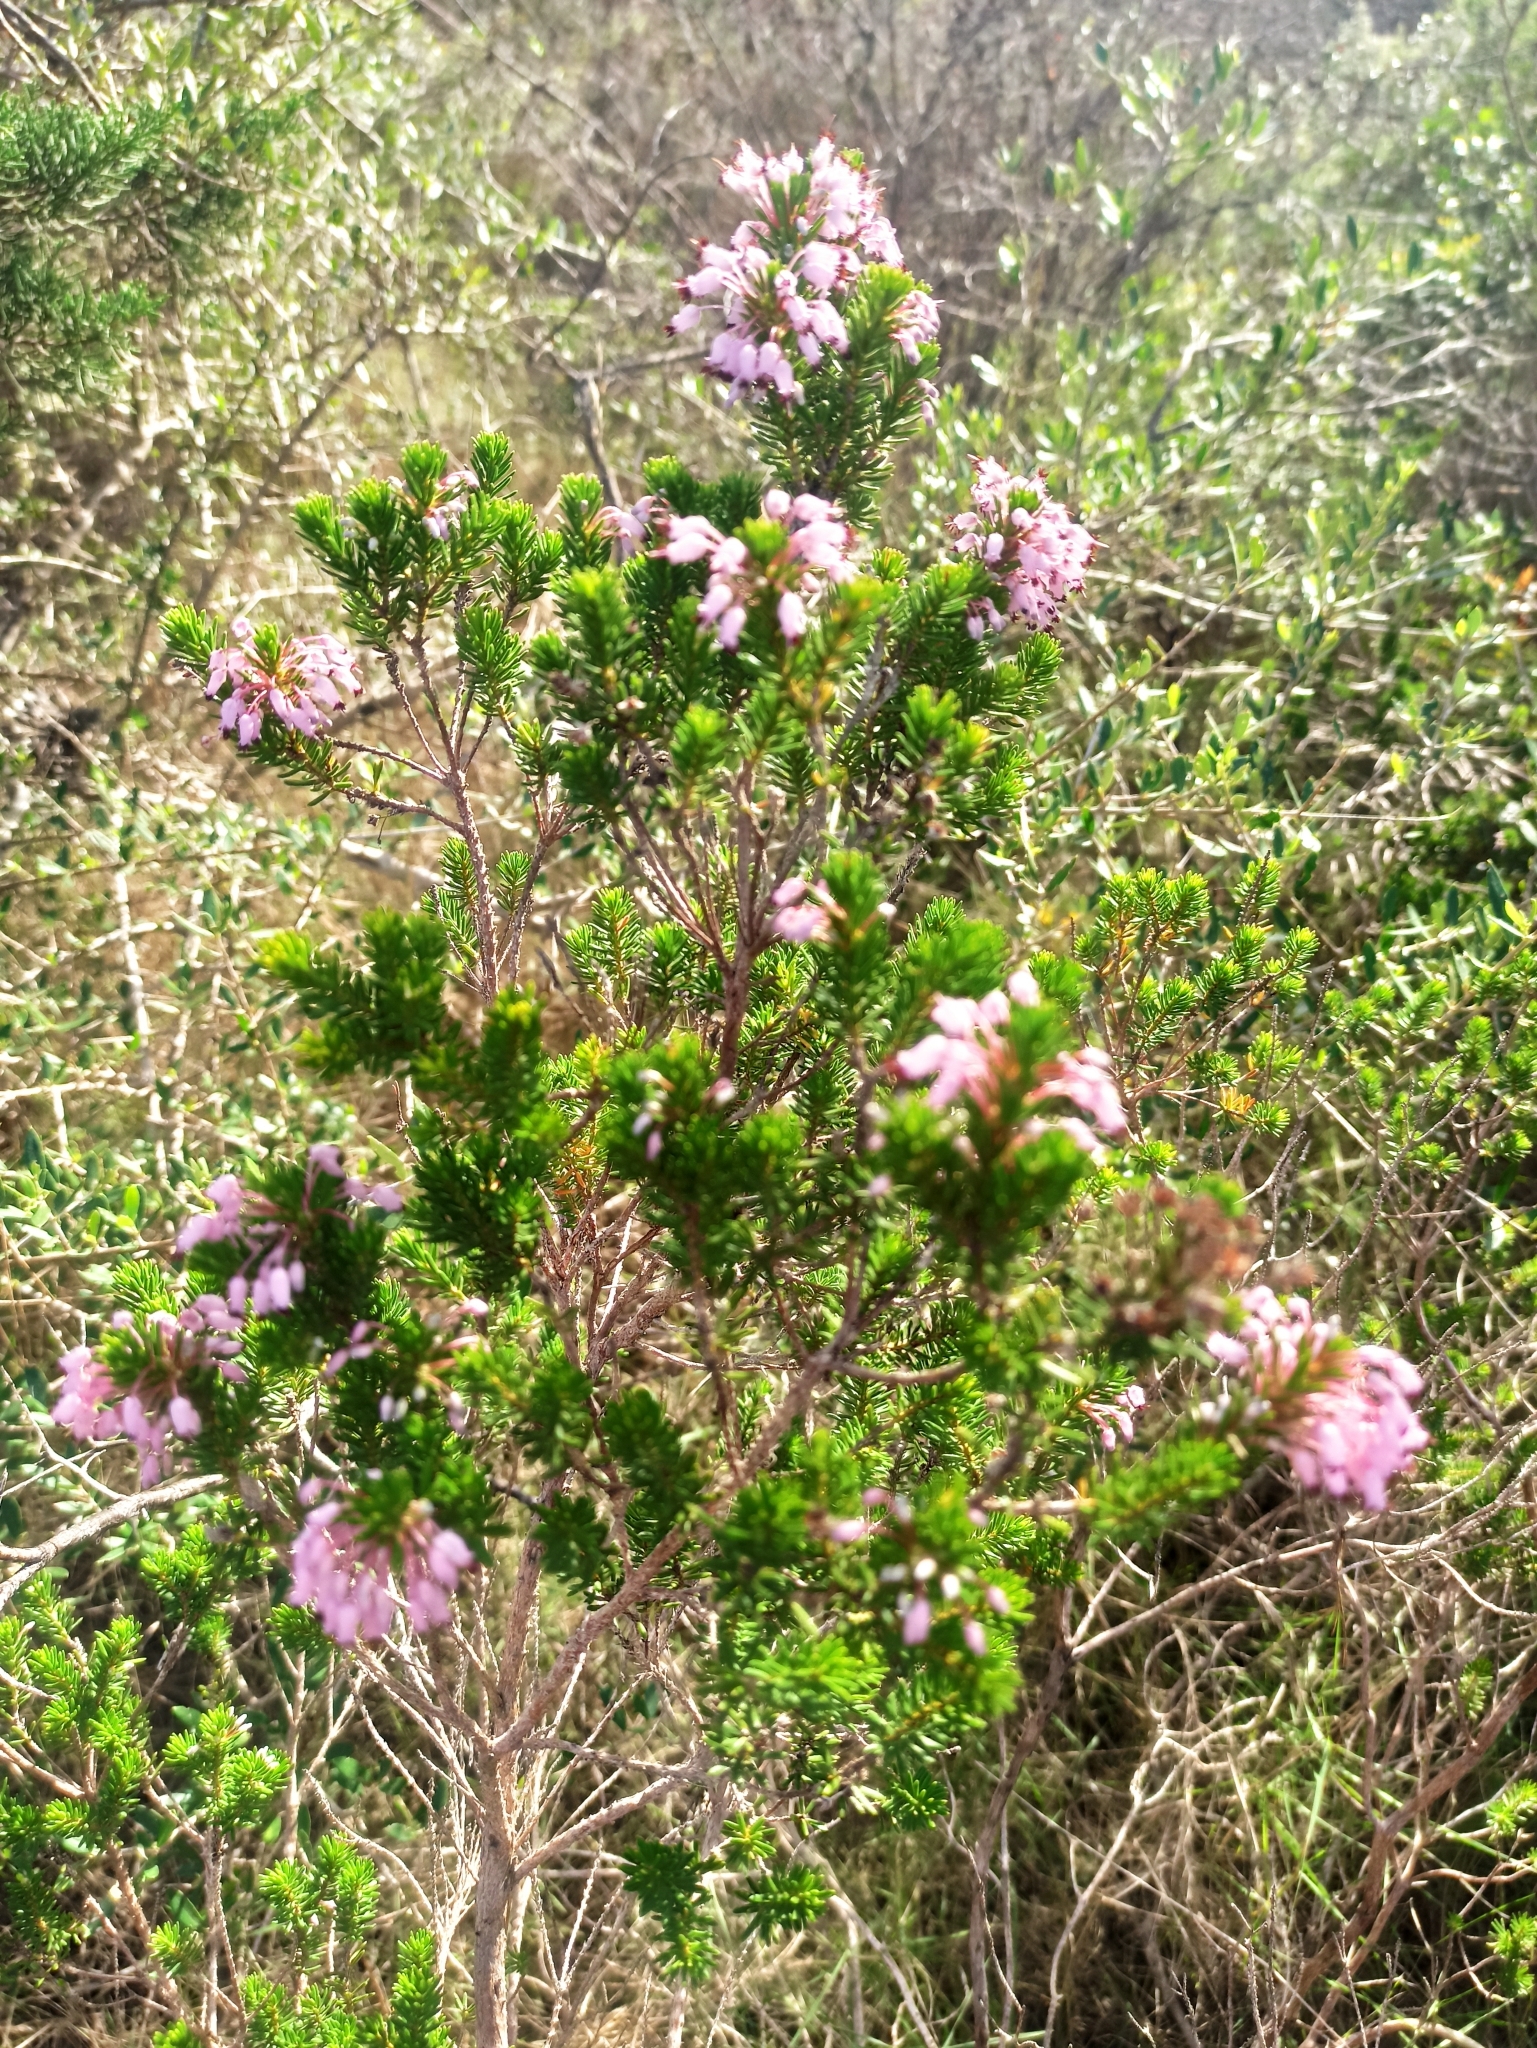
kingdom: Plantae
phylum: Tracheophyta
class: Magnoliopsida
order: Ericales
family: Ericaceae
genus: Erica
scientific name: Erica multiflora
